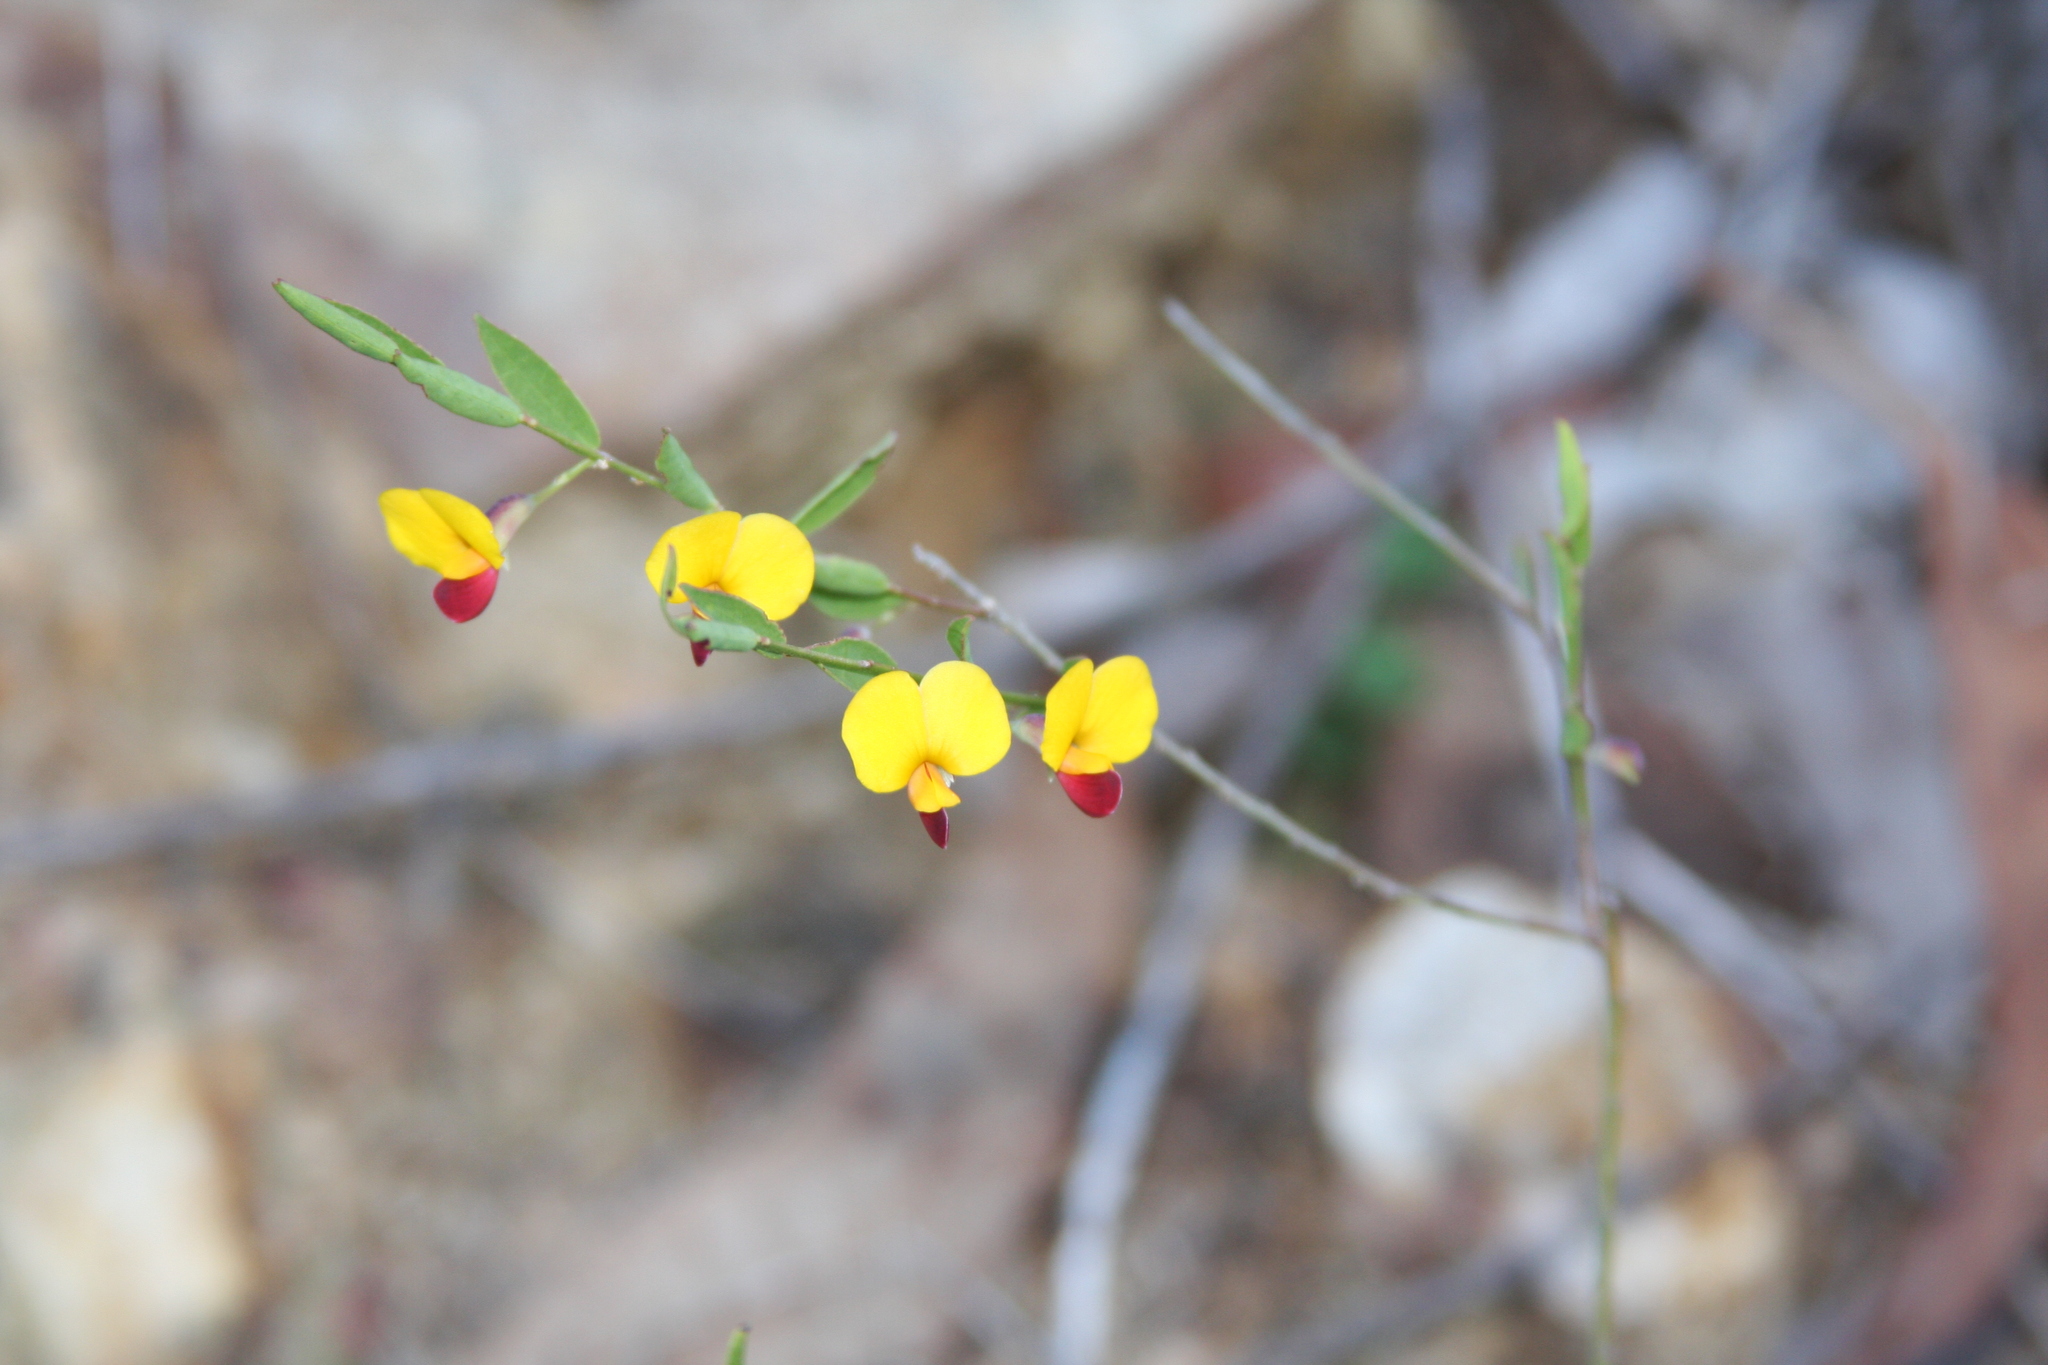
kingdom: Plantae
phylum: Tracheophyta
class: Magnoliopsida
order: Fabales
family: Fabaceae
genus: Bossiaea
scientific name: Bossiaea heterophylla
